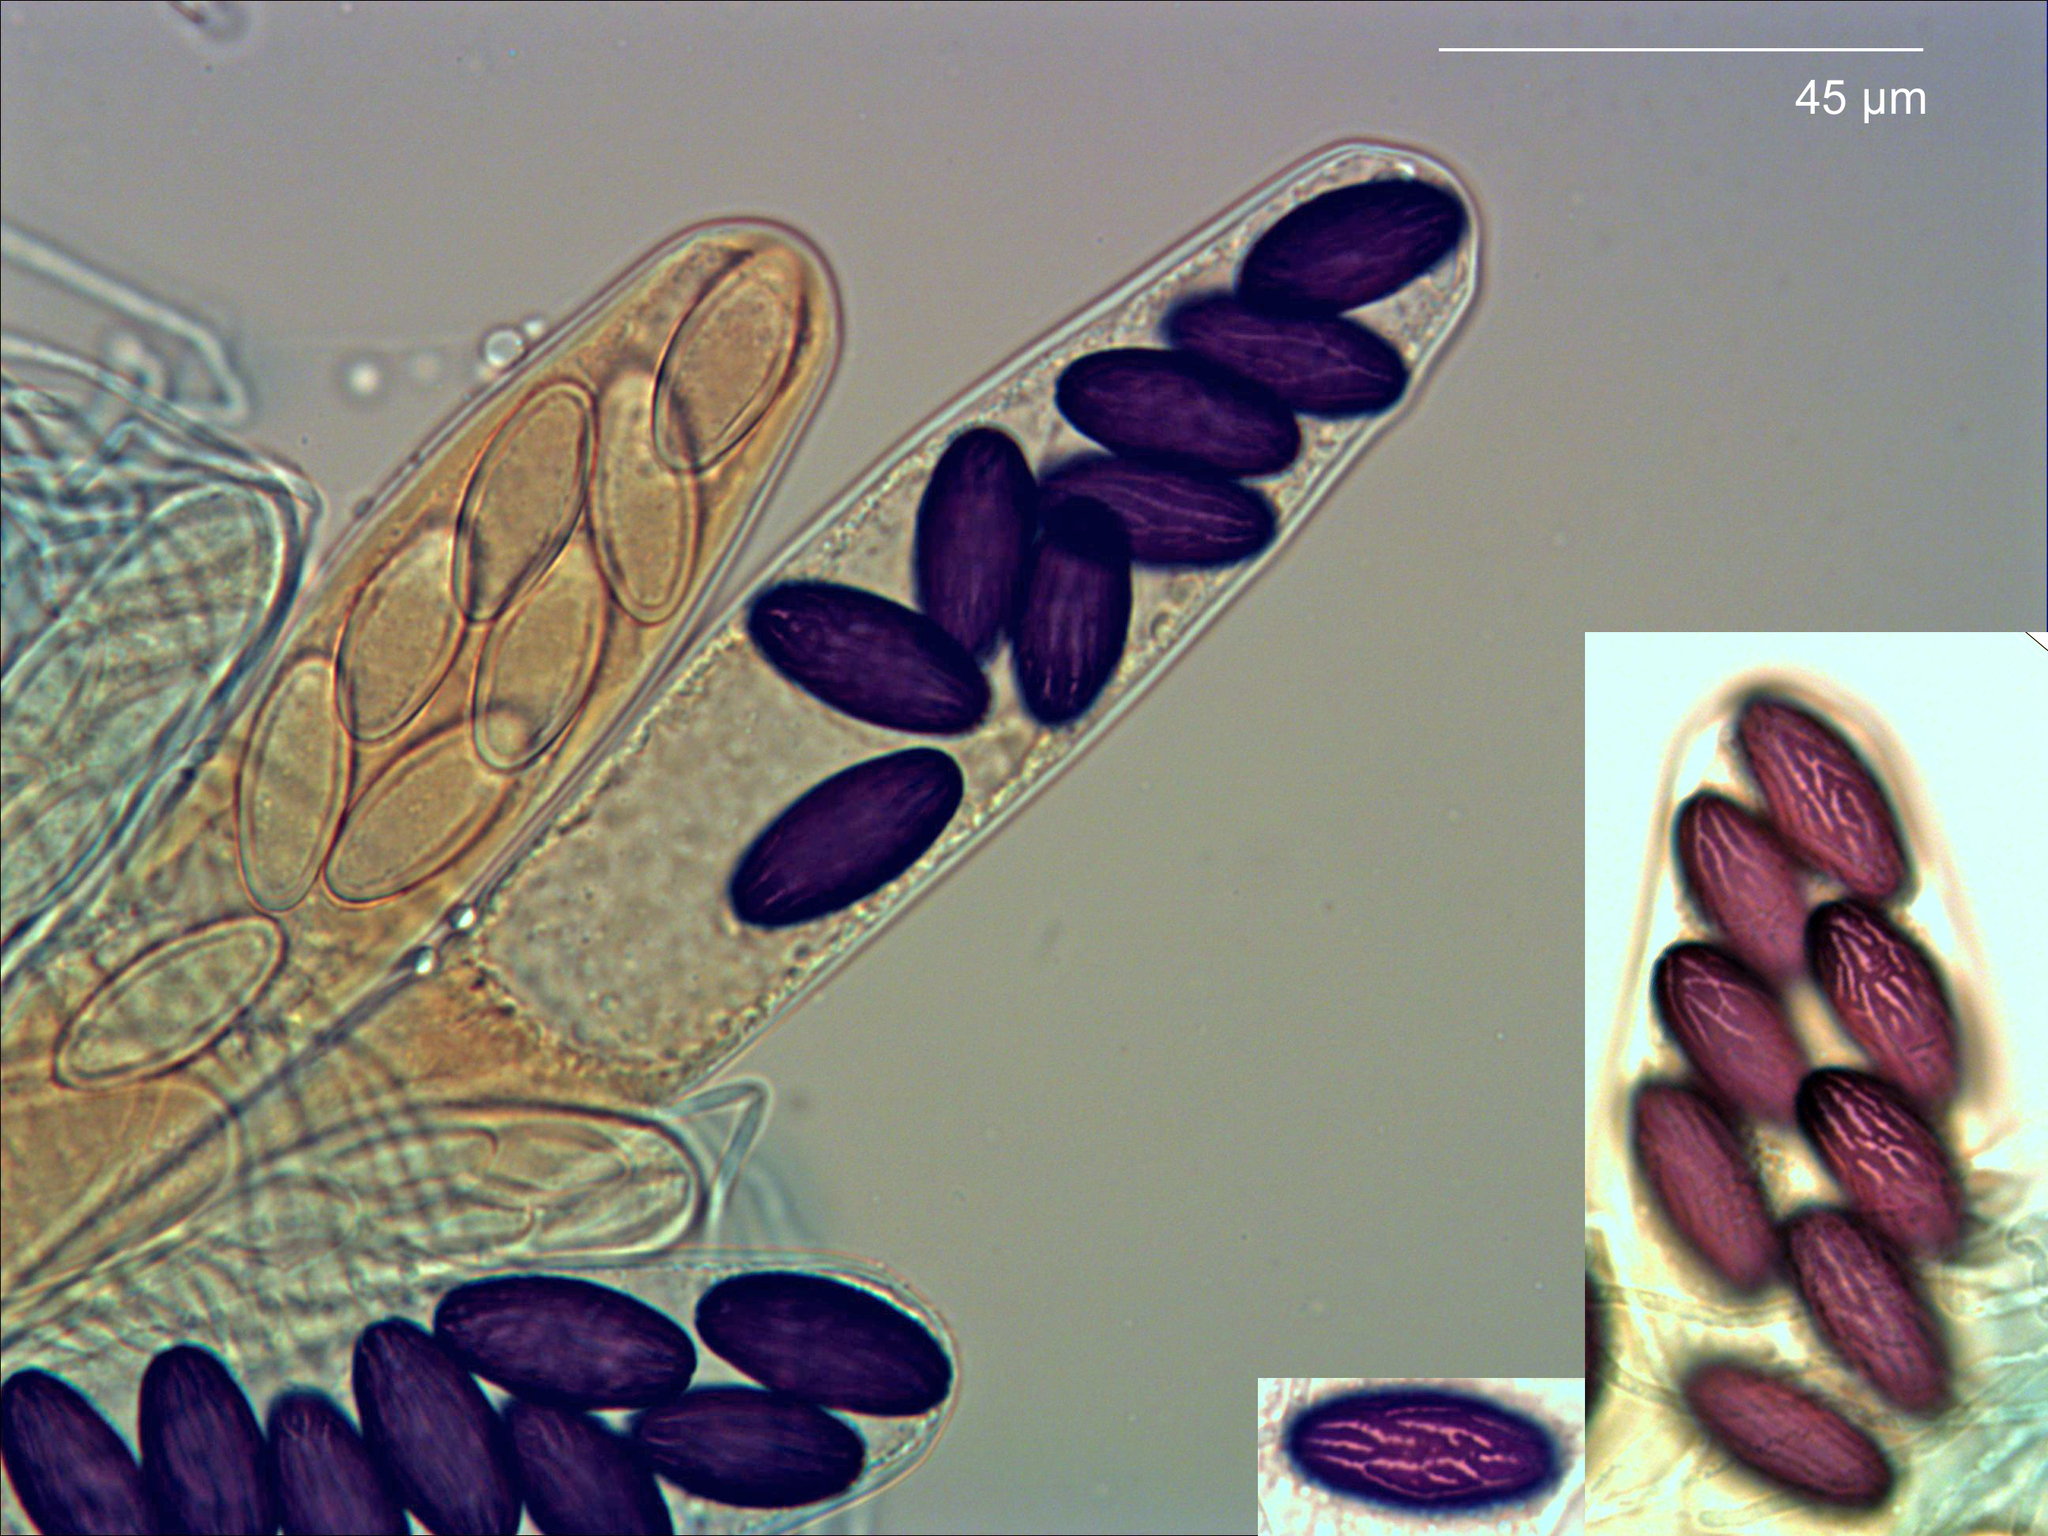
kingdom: Fungi
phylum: Ascomycota
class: Pezizomycetes
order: Pezizales
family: Ascobolaceae
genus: Ascobolus
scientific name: Ascobolus albidus
